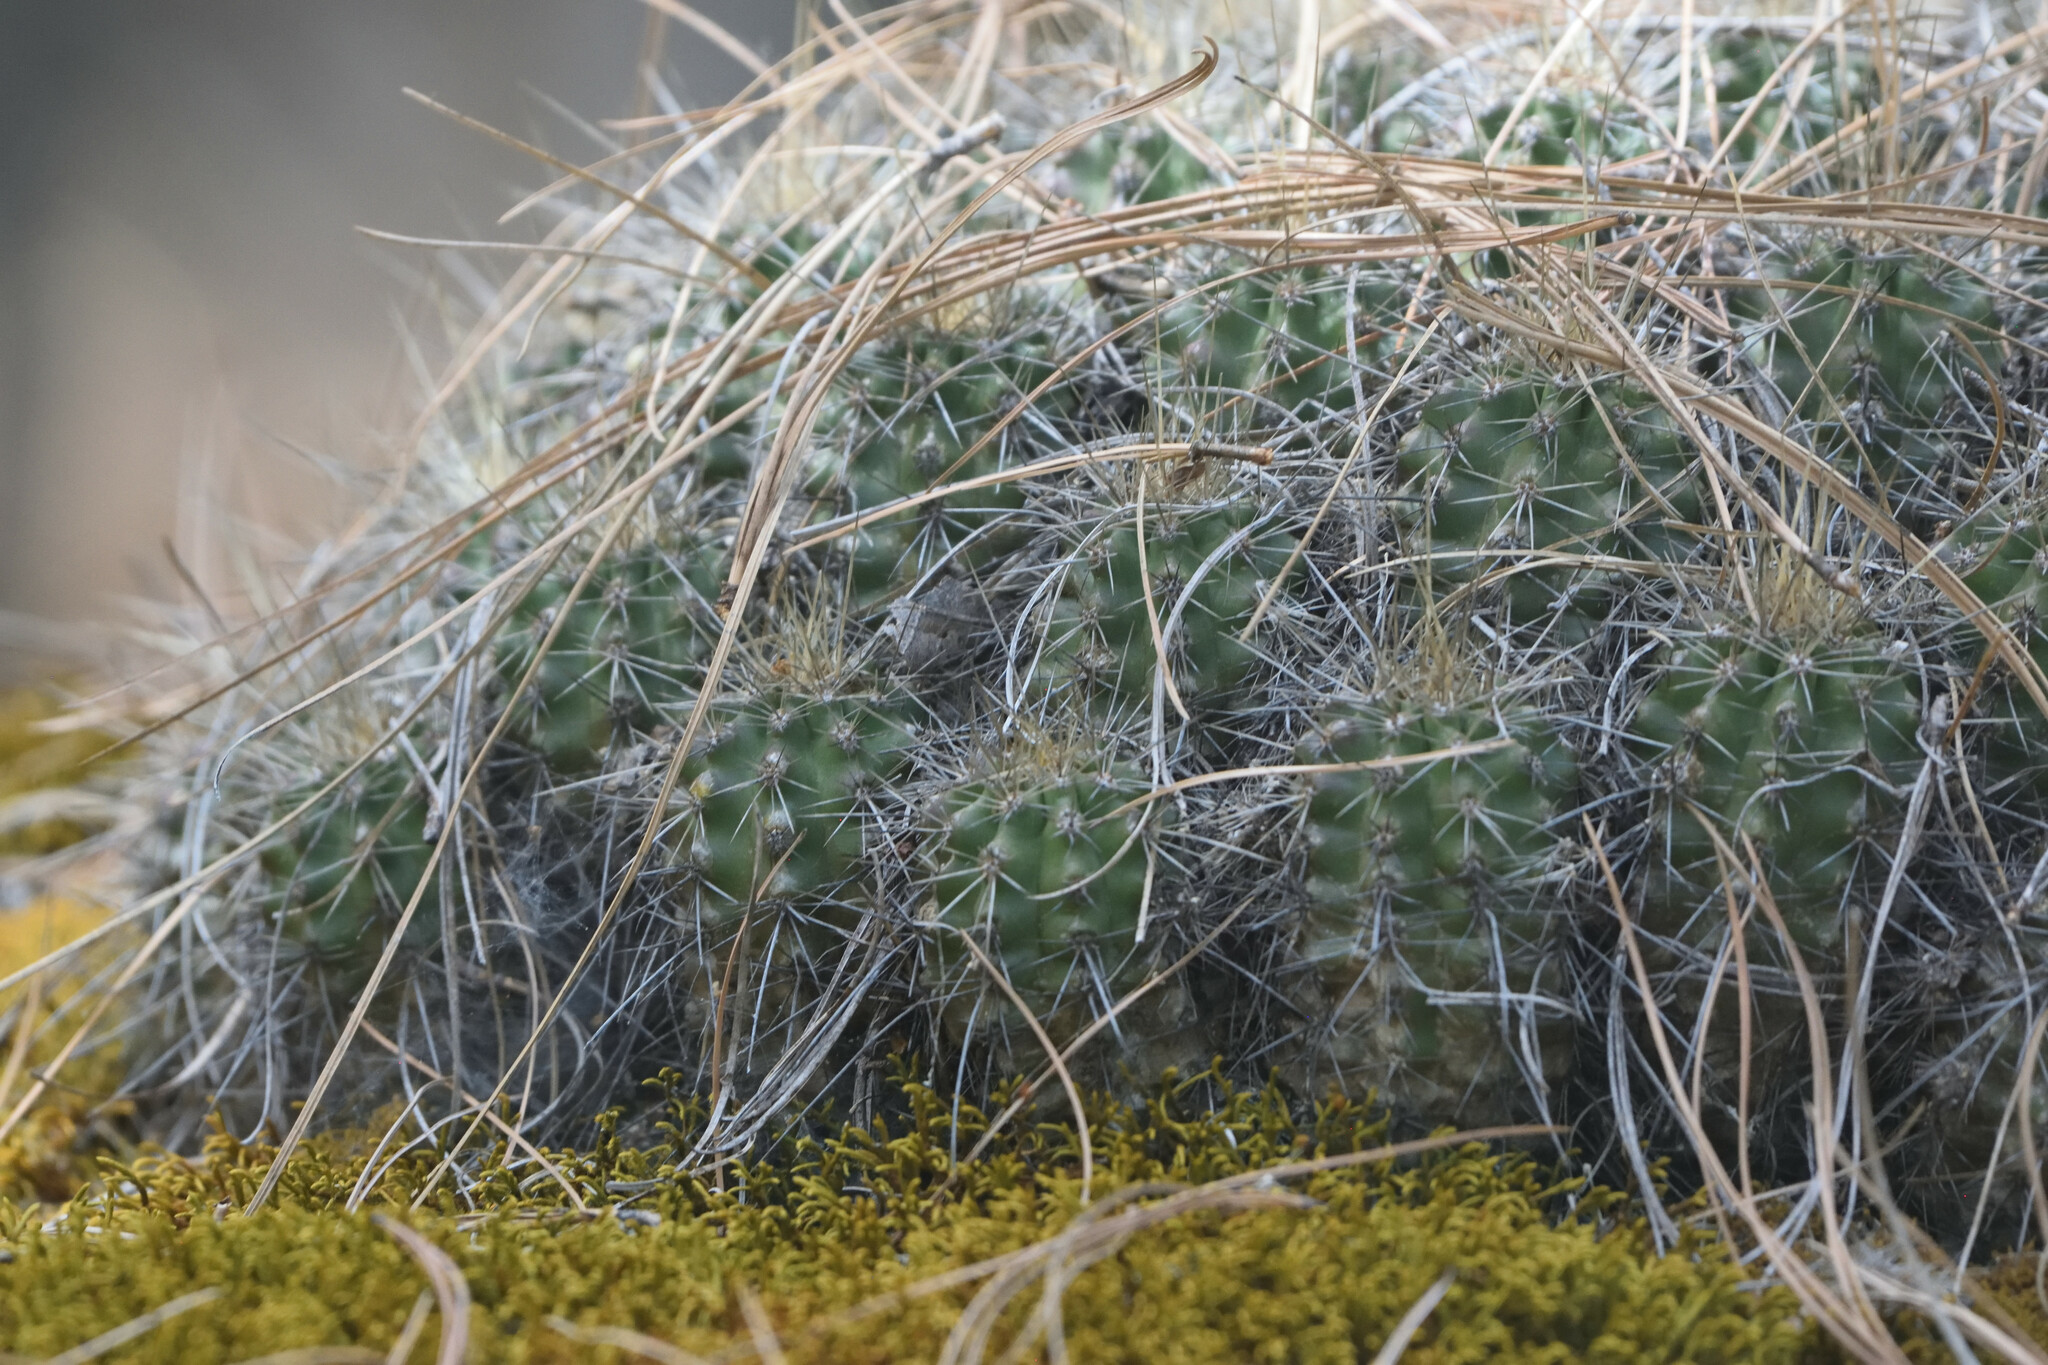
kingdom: Plantae
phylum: Tracheophyta
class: Magnoliopsida
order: Caryophyllales
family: Cactaceae
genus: Echinocereus
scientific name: Echinocereus polyacanthus
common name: Mojave mound cactus
